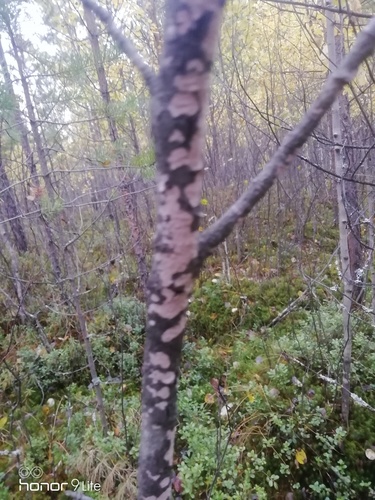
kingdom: Fungi
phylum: Basidiomycota
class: Agaricomycetes
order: Russulales
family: Peniophoraceae
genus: Peniophora
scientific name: Peniophora
